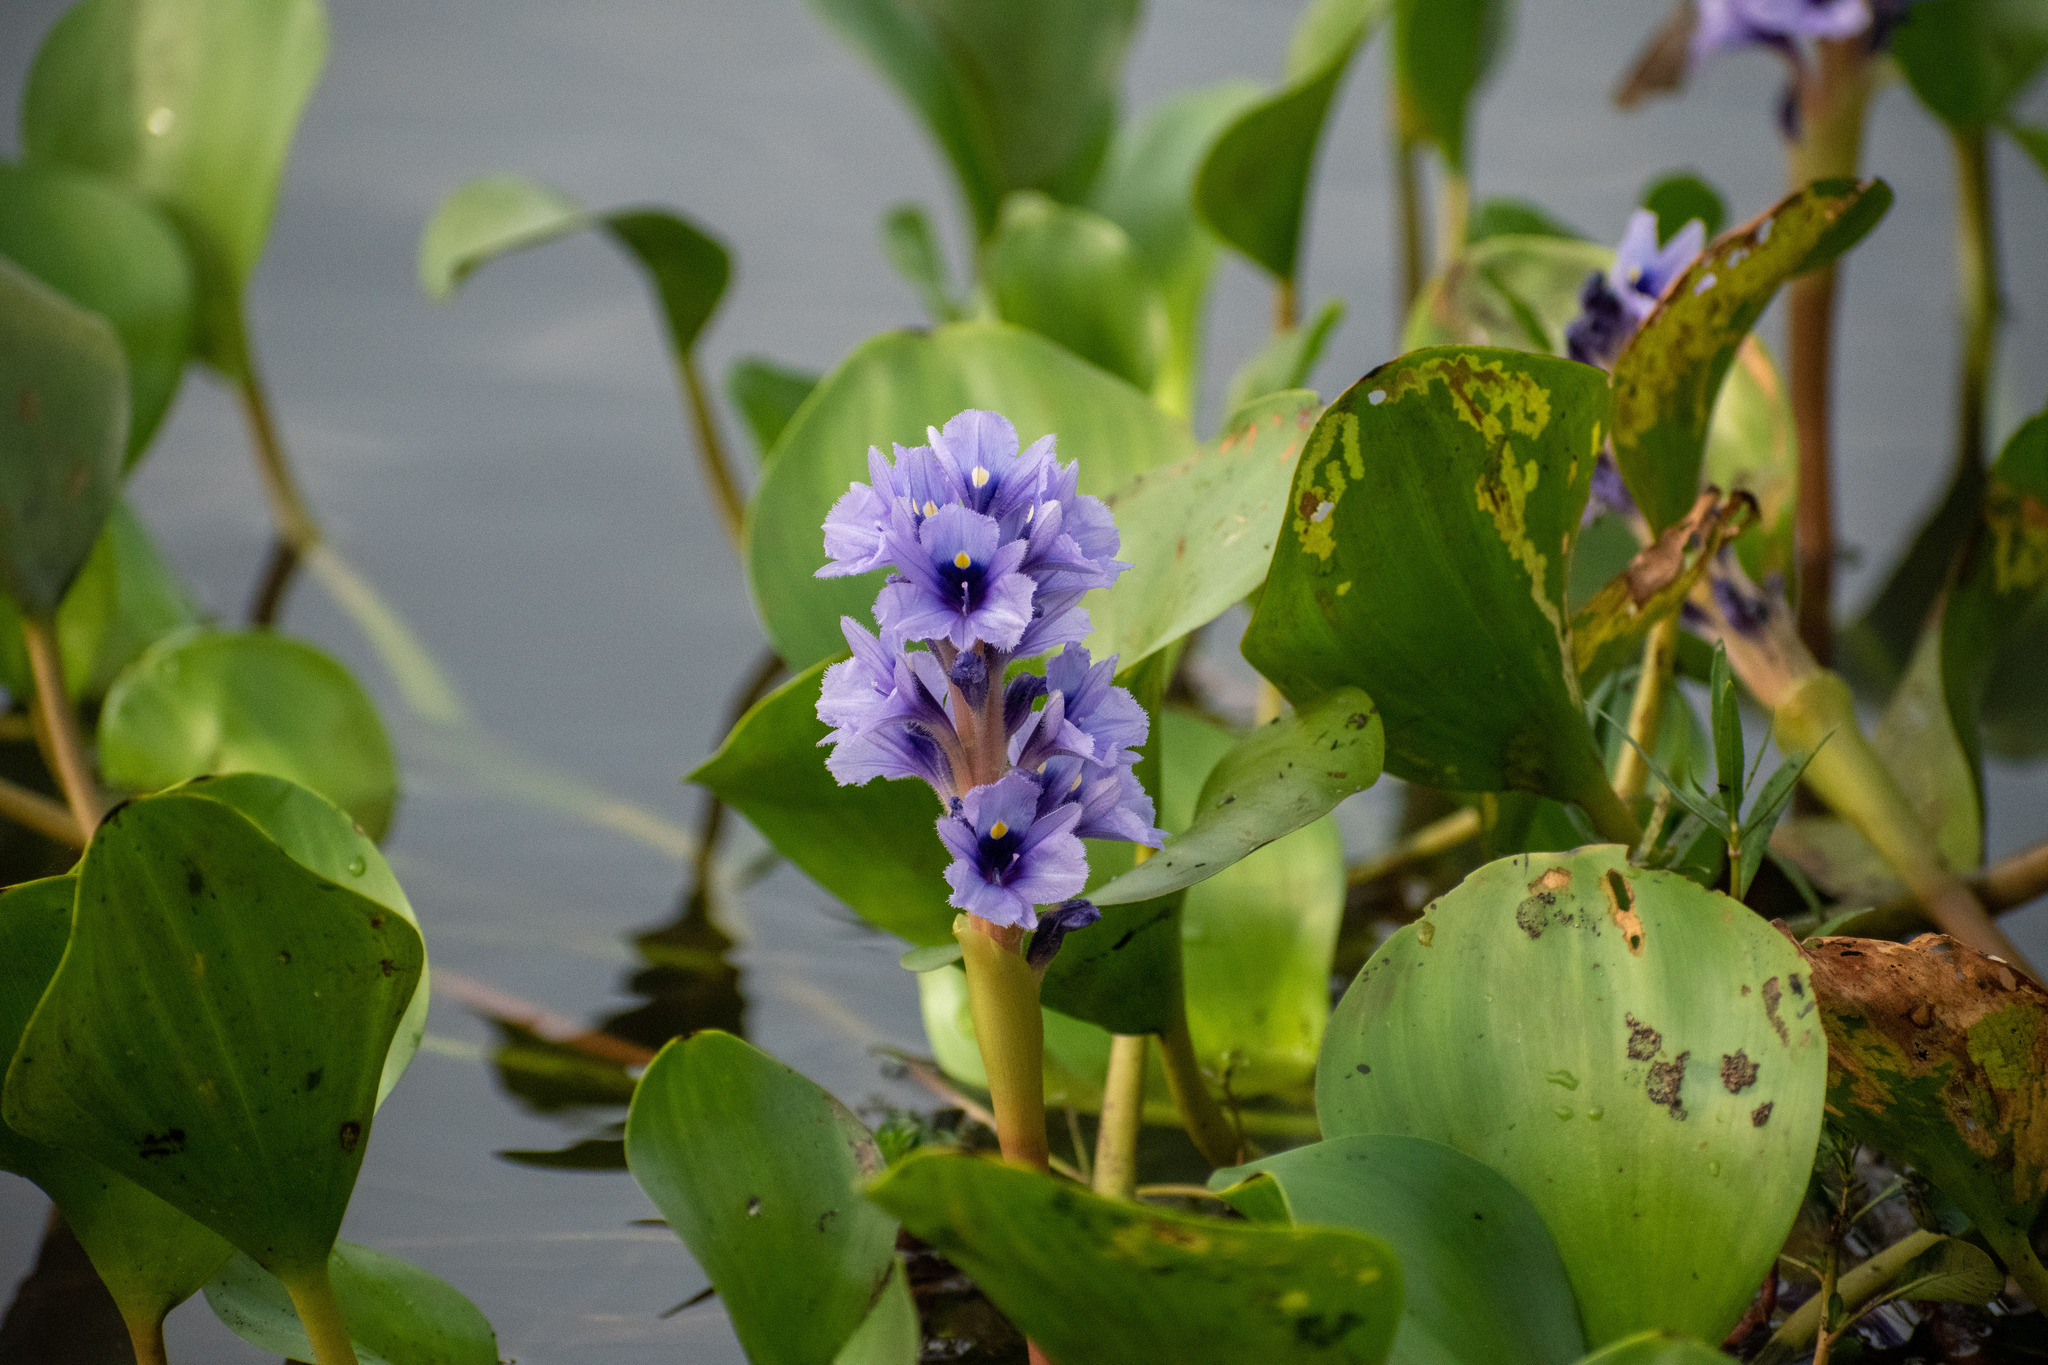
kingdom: Plantae
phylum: Tracheophyta
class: Liliopsida
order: Commelinales
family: Pontederiaceae
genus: Pontederia
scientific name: Pontederia azurea
